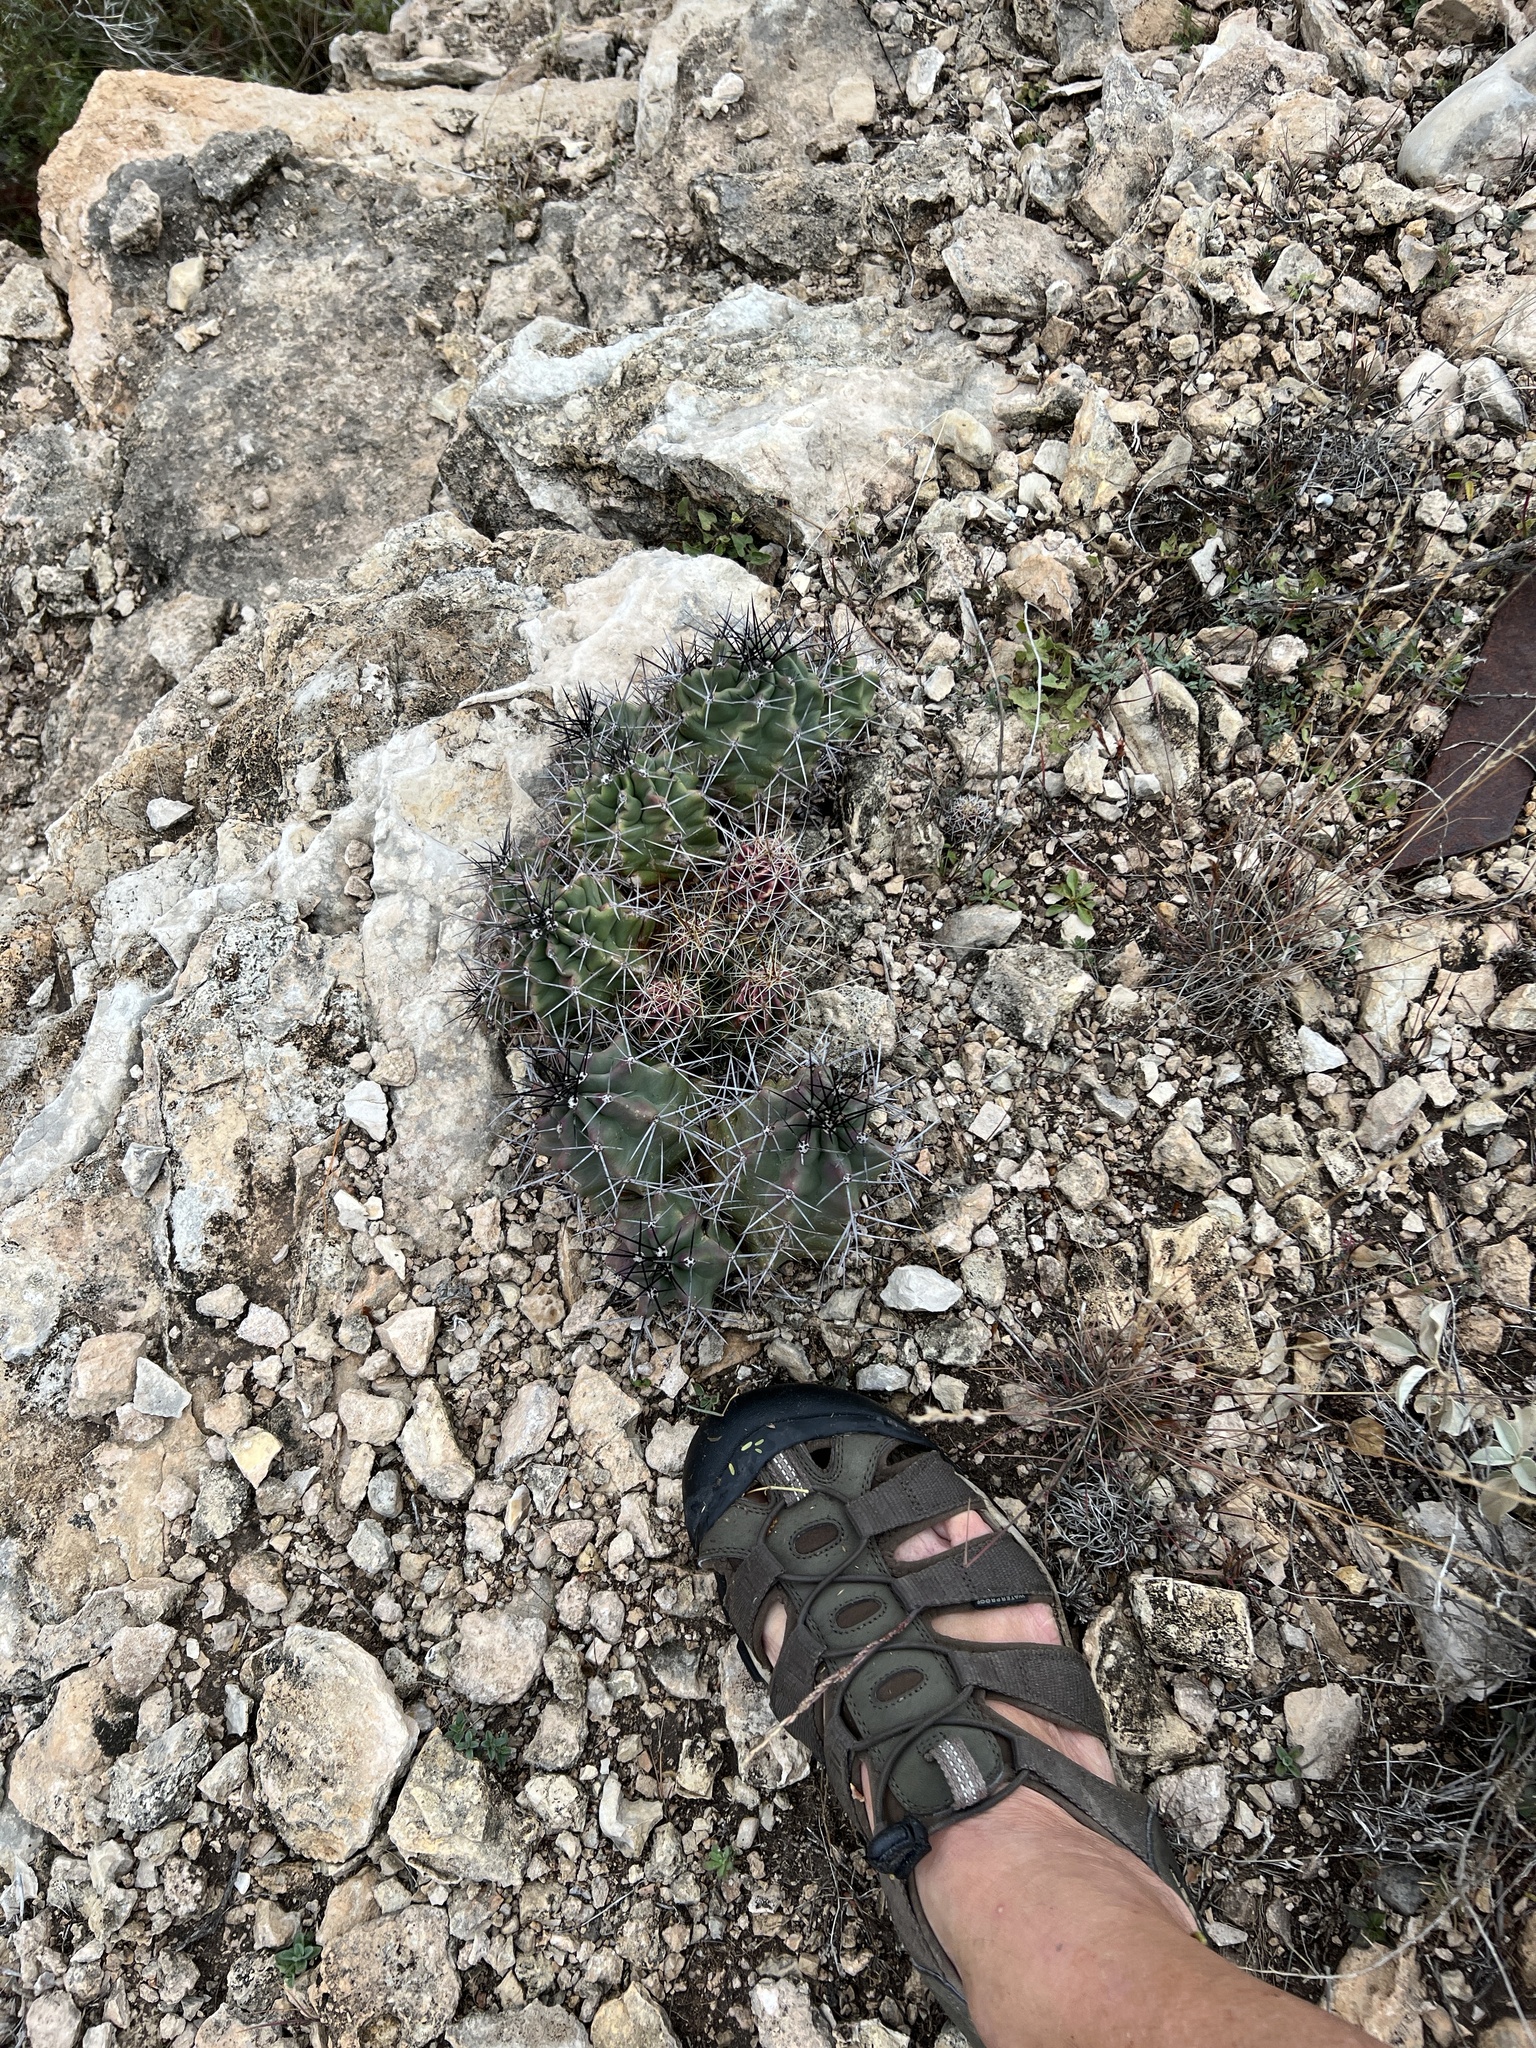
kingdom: Plantae
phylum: Tracheophyta
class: Magnoliopsida
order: Caryophyllales
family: Cactaceae
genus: Echinocereus
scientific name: Echinocereus coccineus
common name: Scarlet hedgehog cactus
